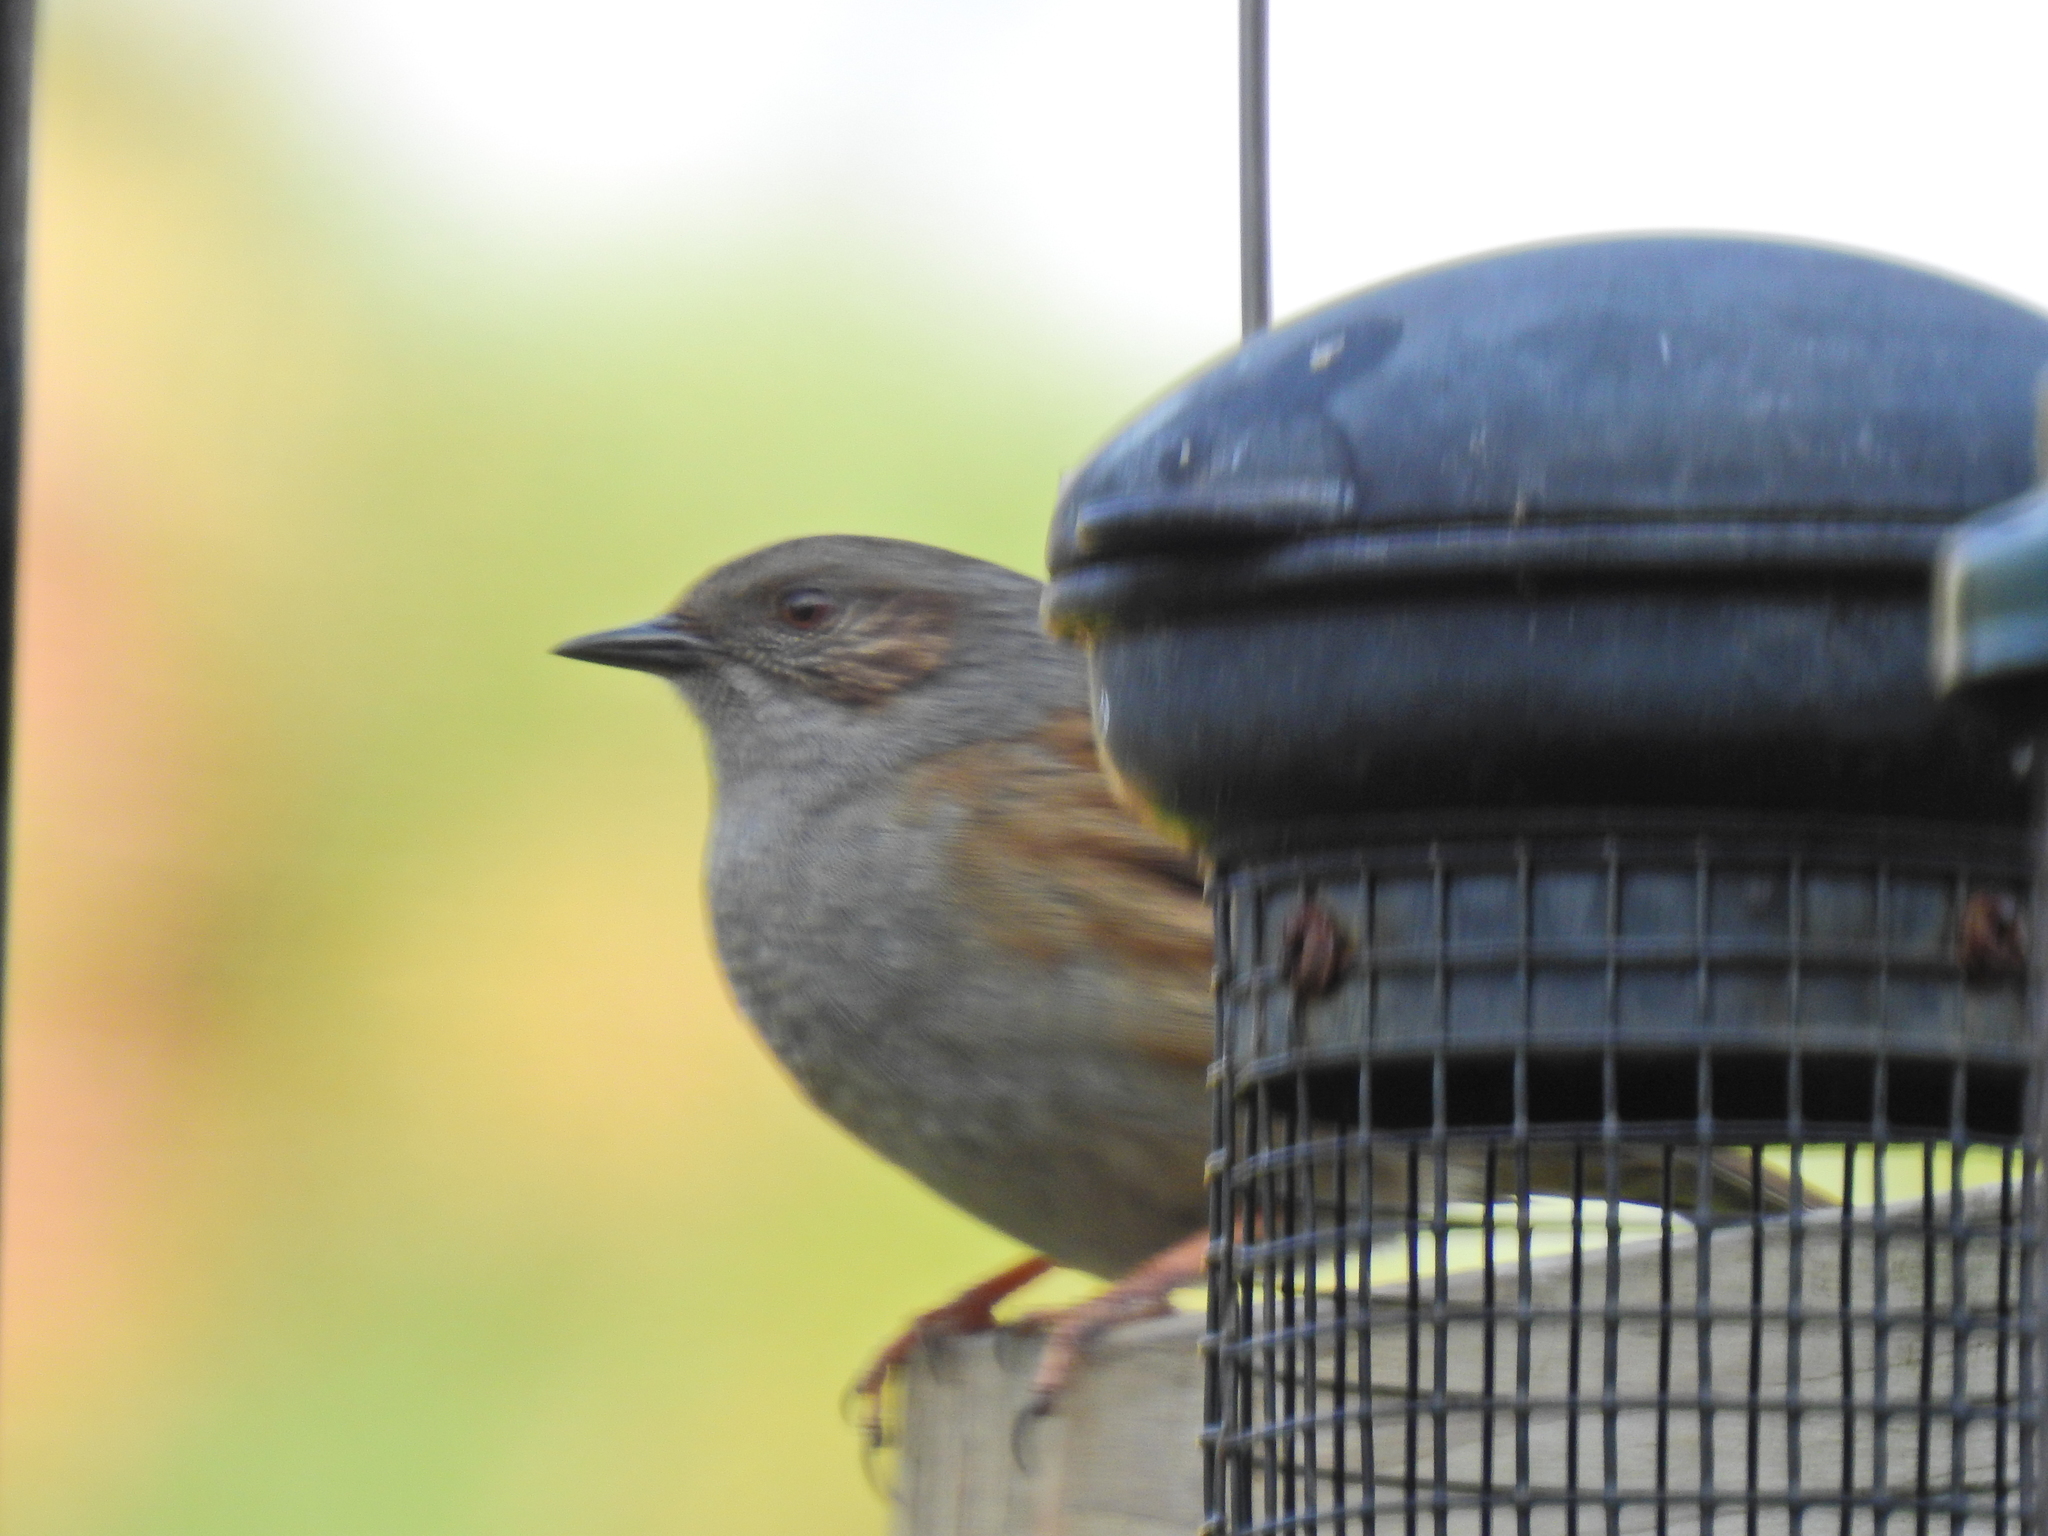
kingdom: Animalia
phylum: Chordata
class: Aves
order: Passeriformes
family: Prunellidae
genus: Prunella
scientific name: Prunella modularis
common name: Dunnock
